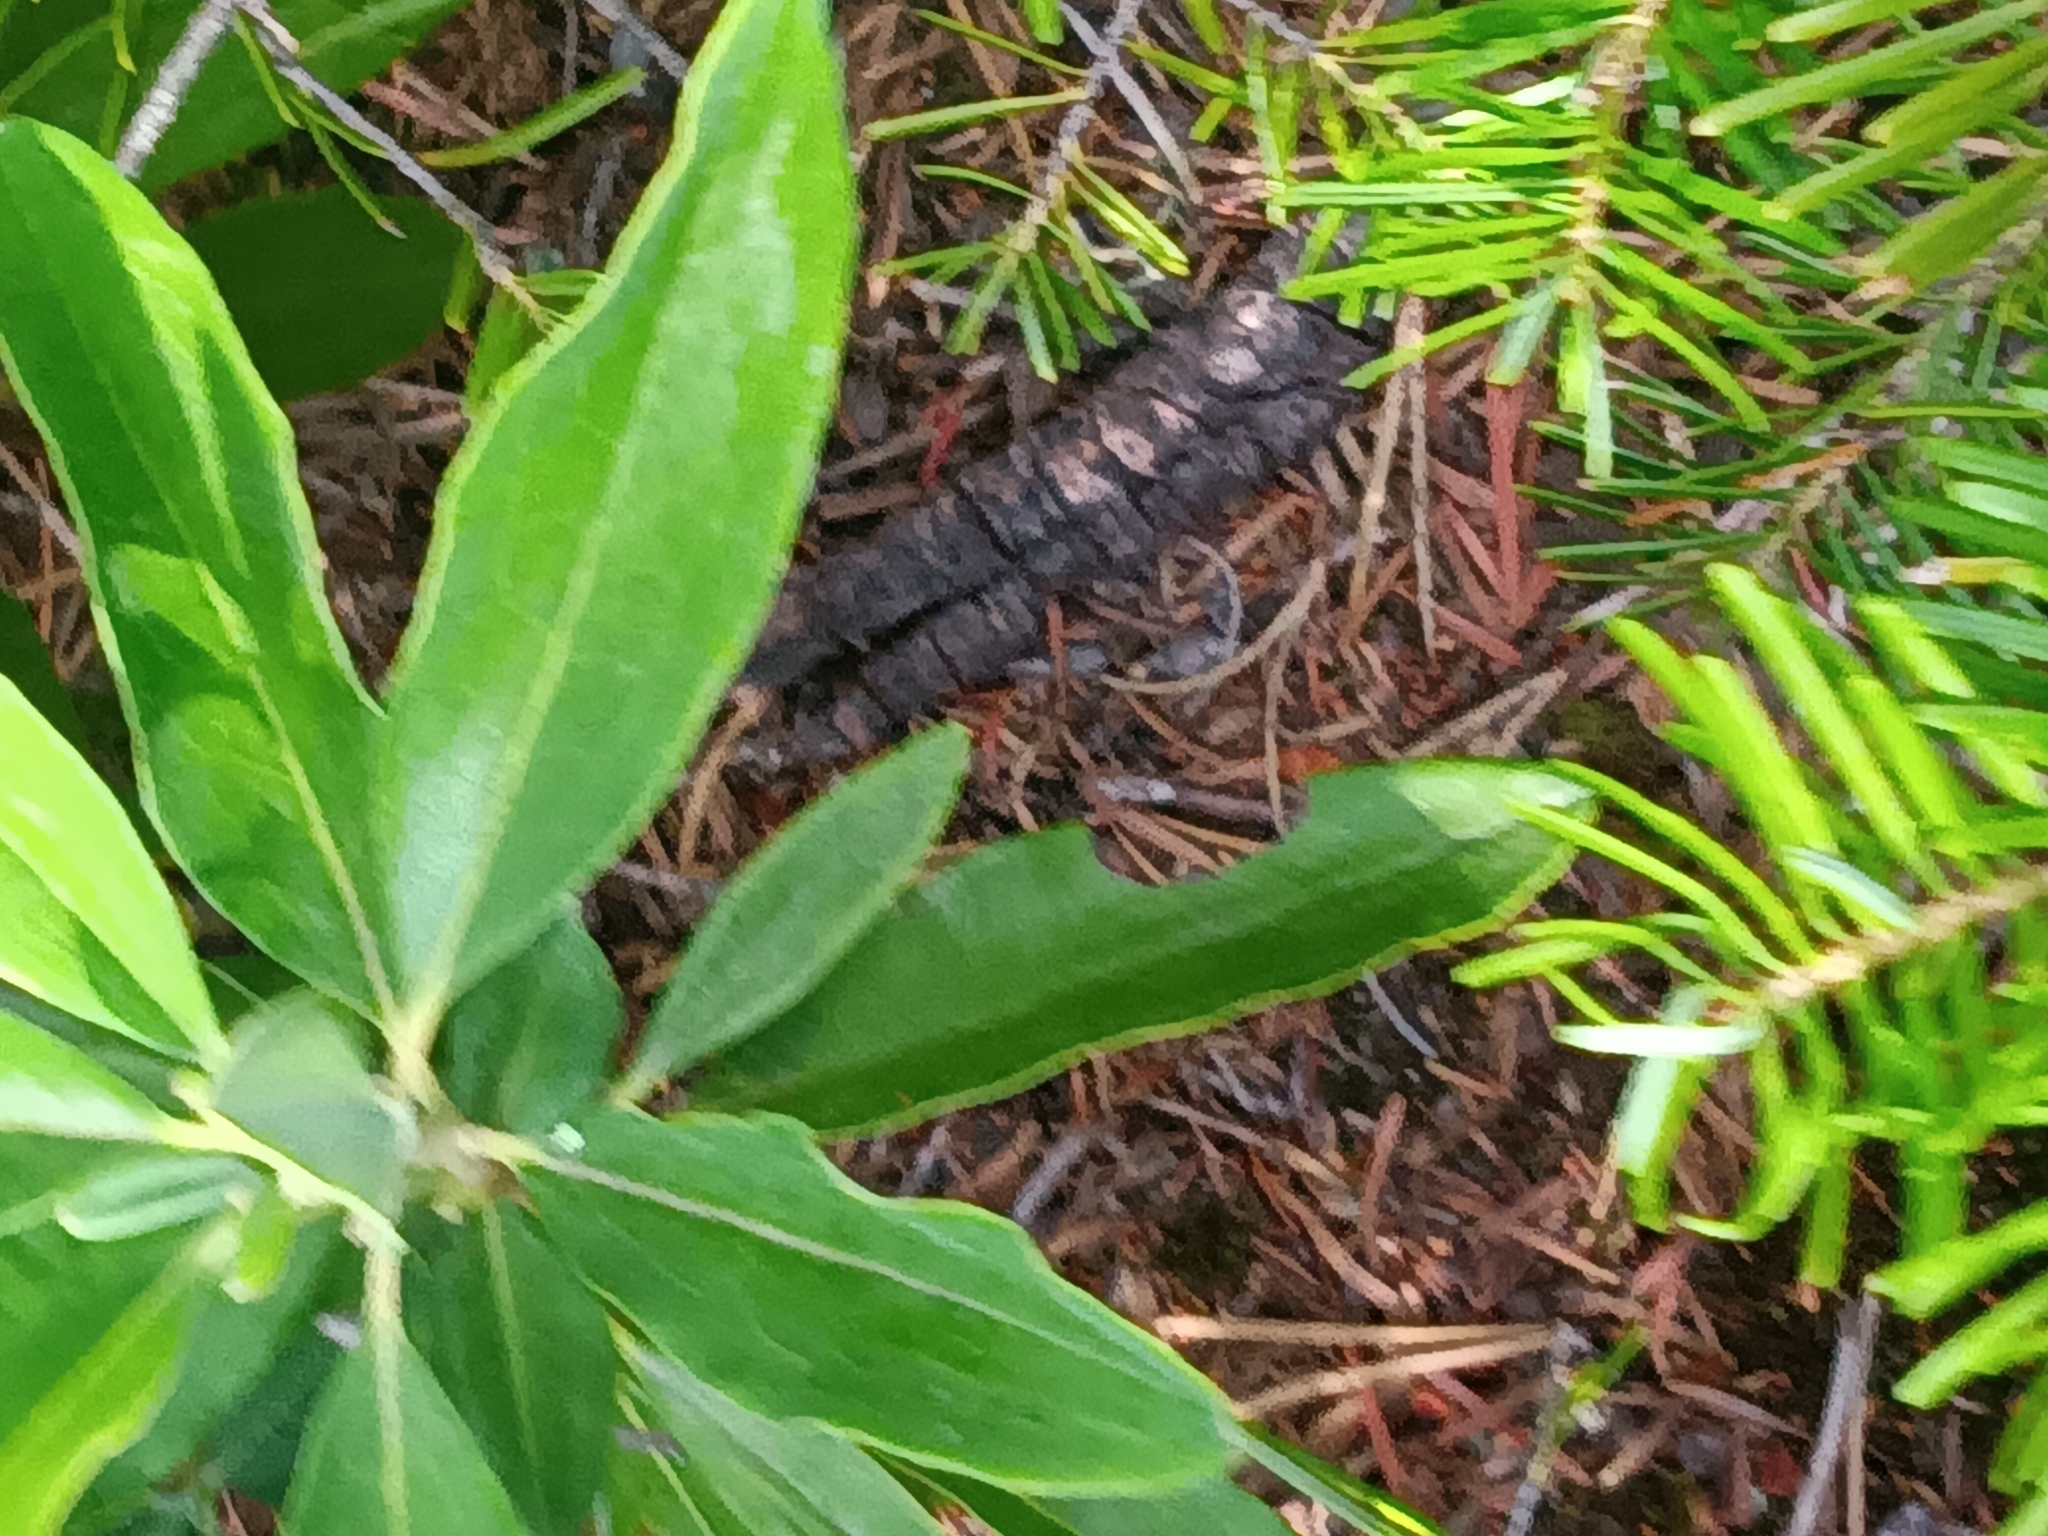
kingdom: Plantae
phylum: Tracheophyta
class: Magnoliopsida
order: Ericales
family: Ericaceae
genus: Kalmia
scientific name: Kalmia angustifolia
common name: Sheep-laurel
